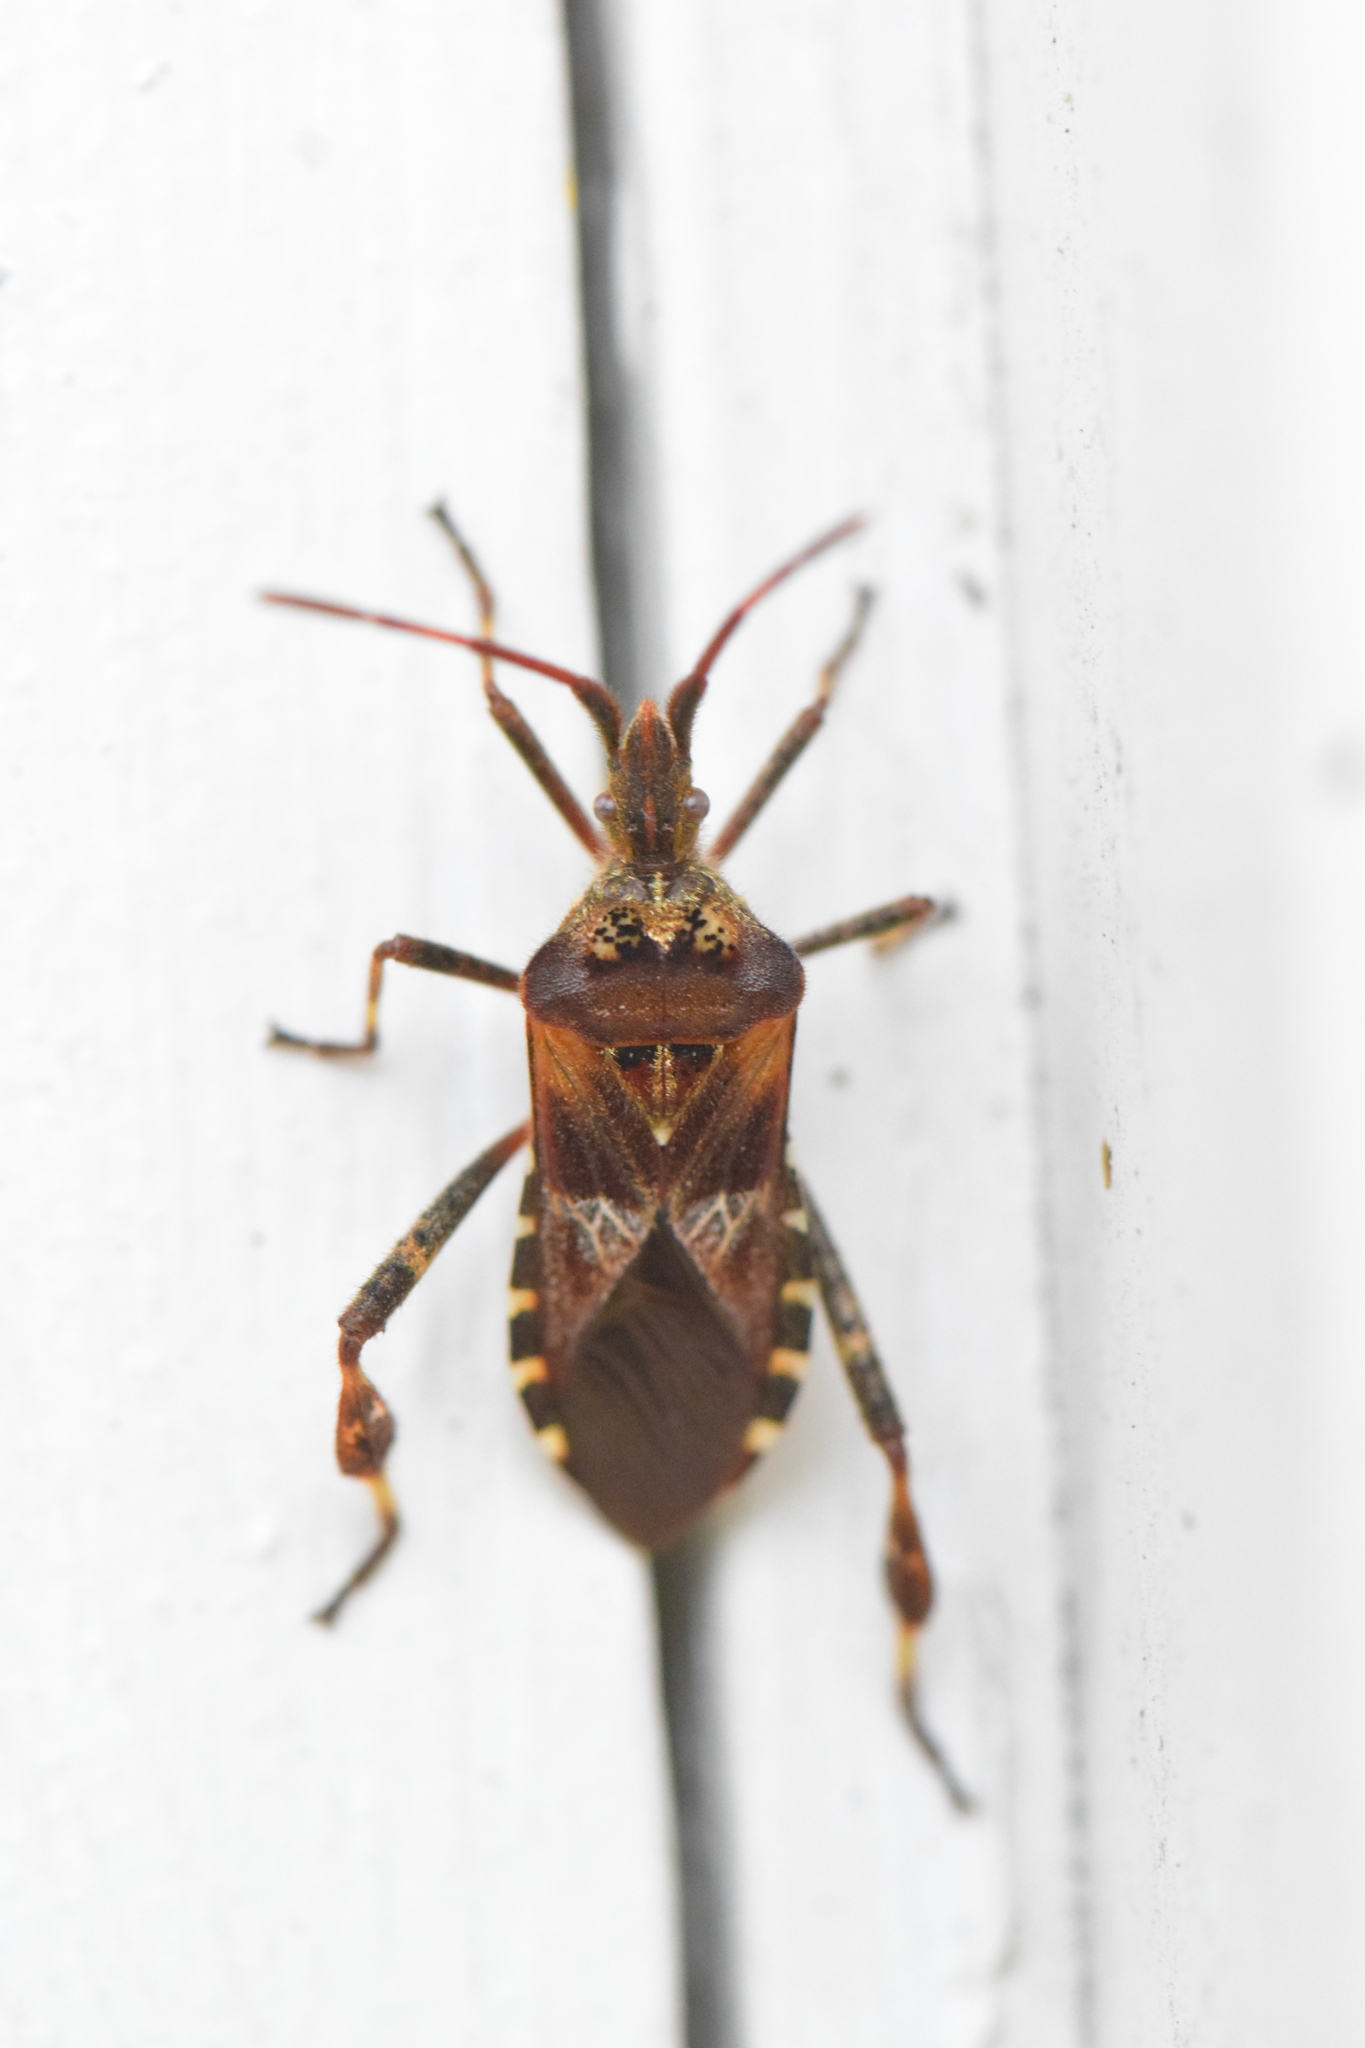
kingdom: Animalia
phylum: Arthropoda
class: Insecta
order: Hemiptera
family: Coreidae
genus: Leptoglossus
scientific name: Leptoglossus occidentalis
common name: Western conifer-seed bug
